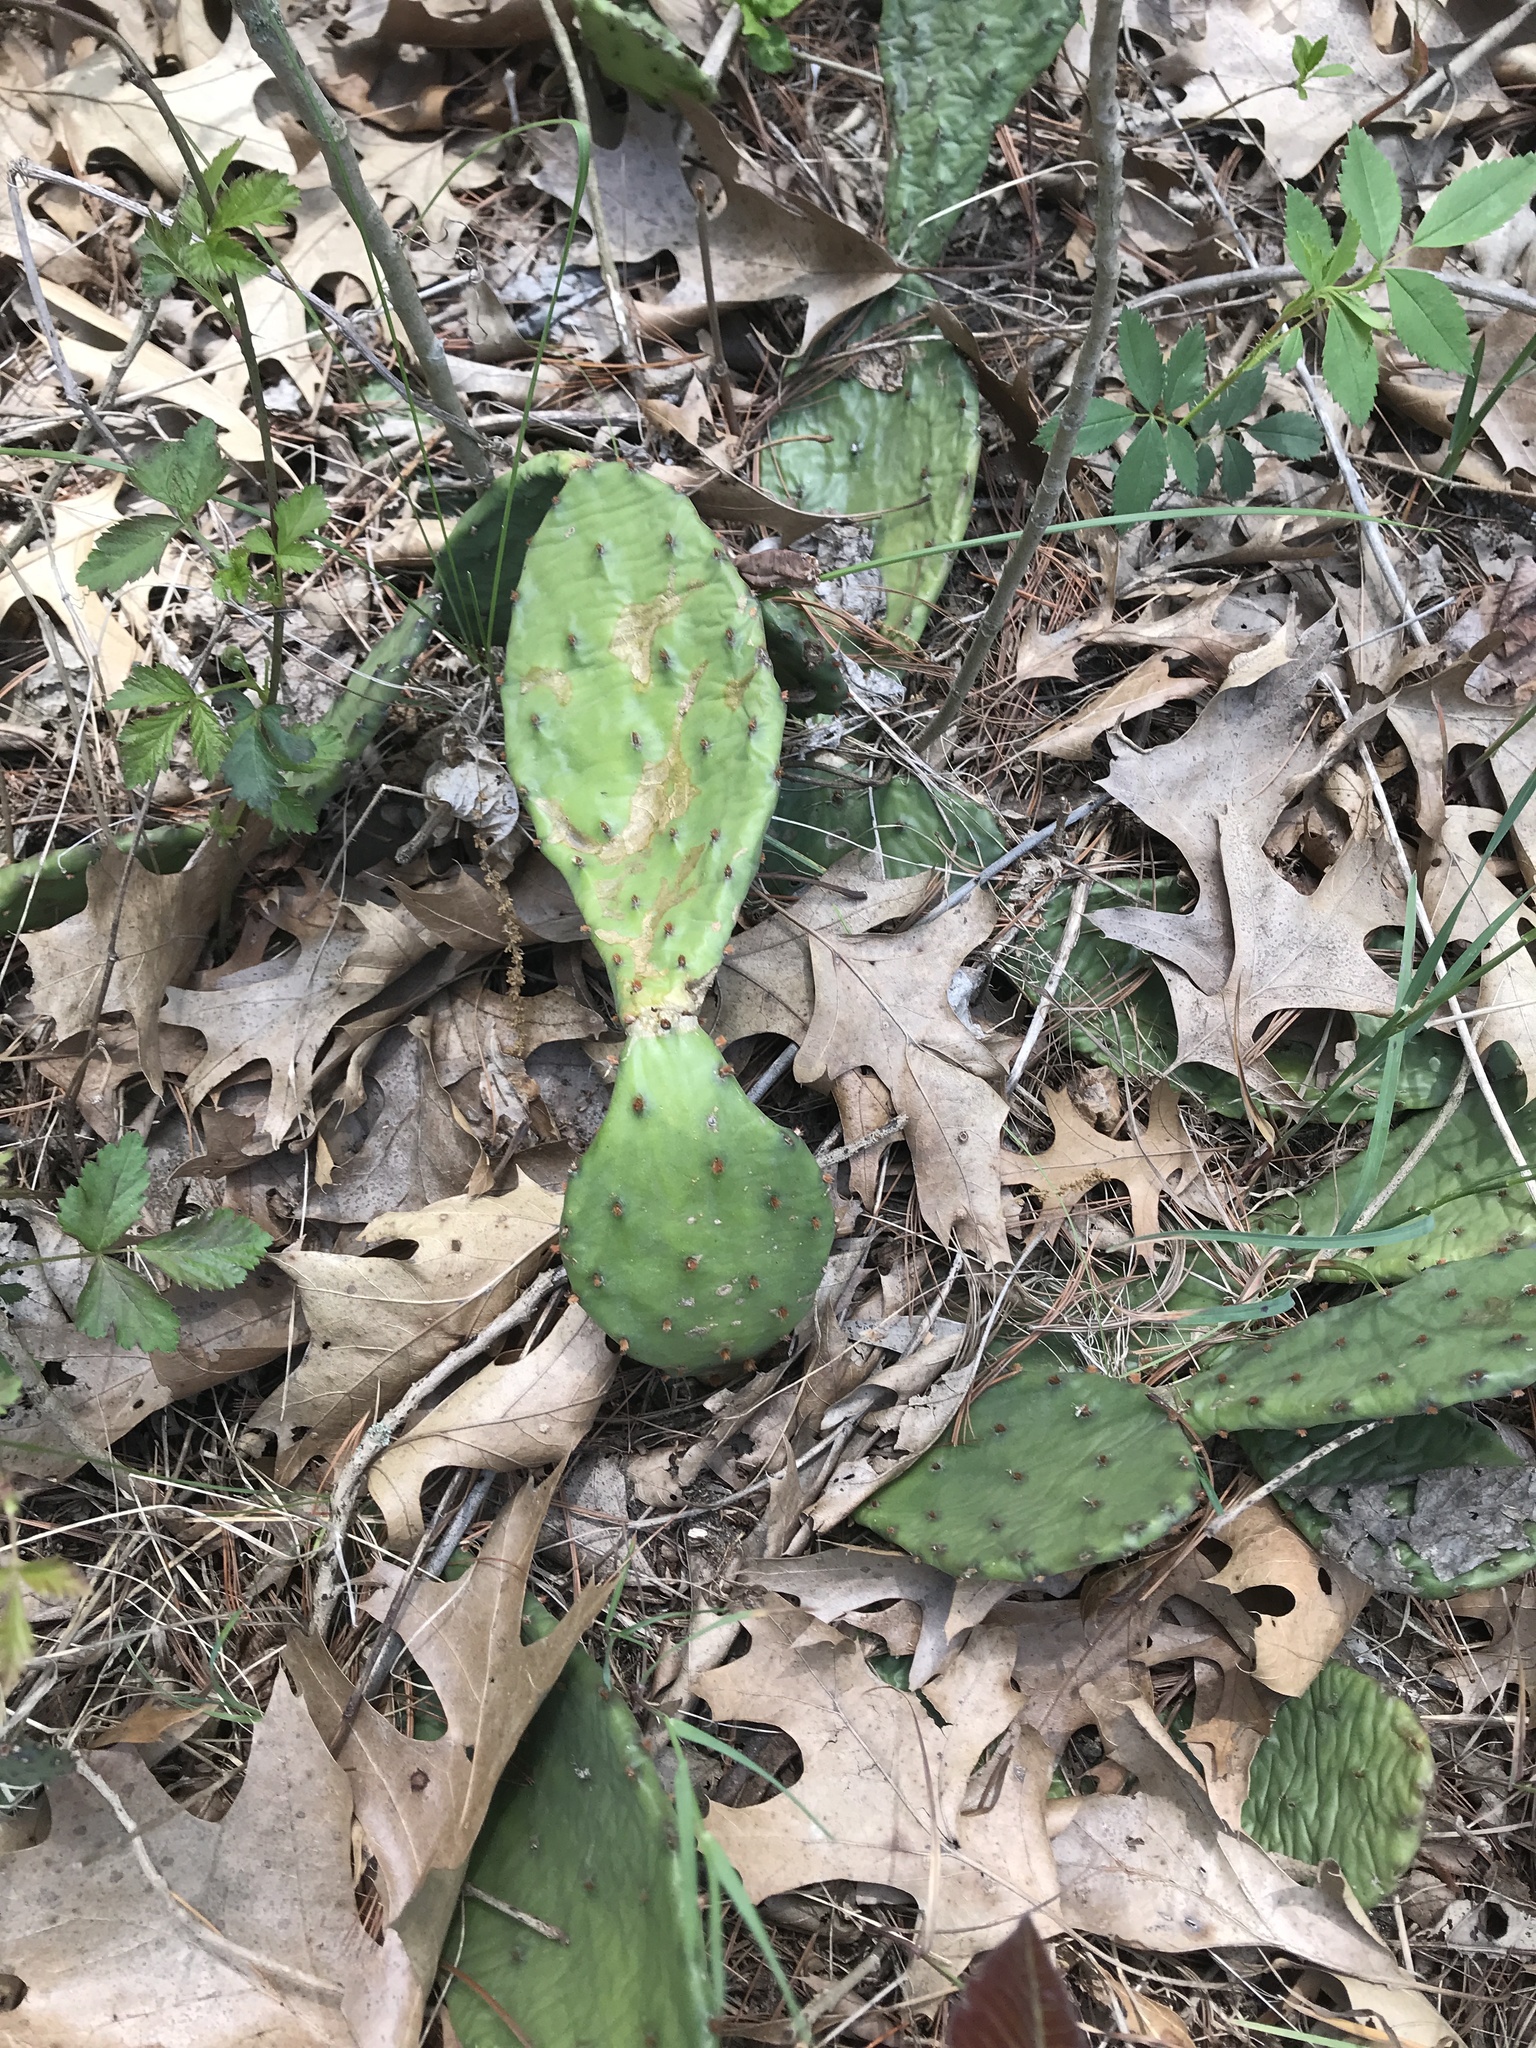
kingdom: Plantae
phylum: Tracheophyta
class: Magnoliopsida
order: Caryophyllales
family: Cactaceae
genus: Opuntia
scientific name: Opuntia humifusa
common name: Eastern prickly-pear
